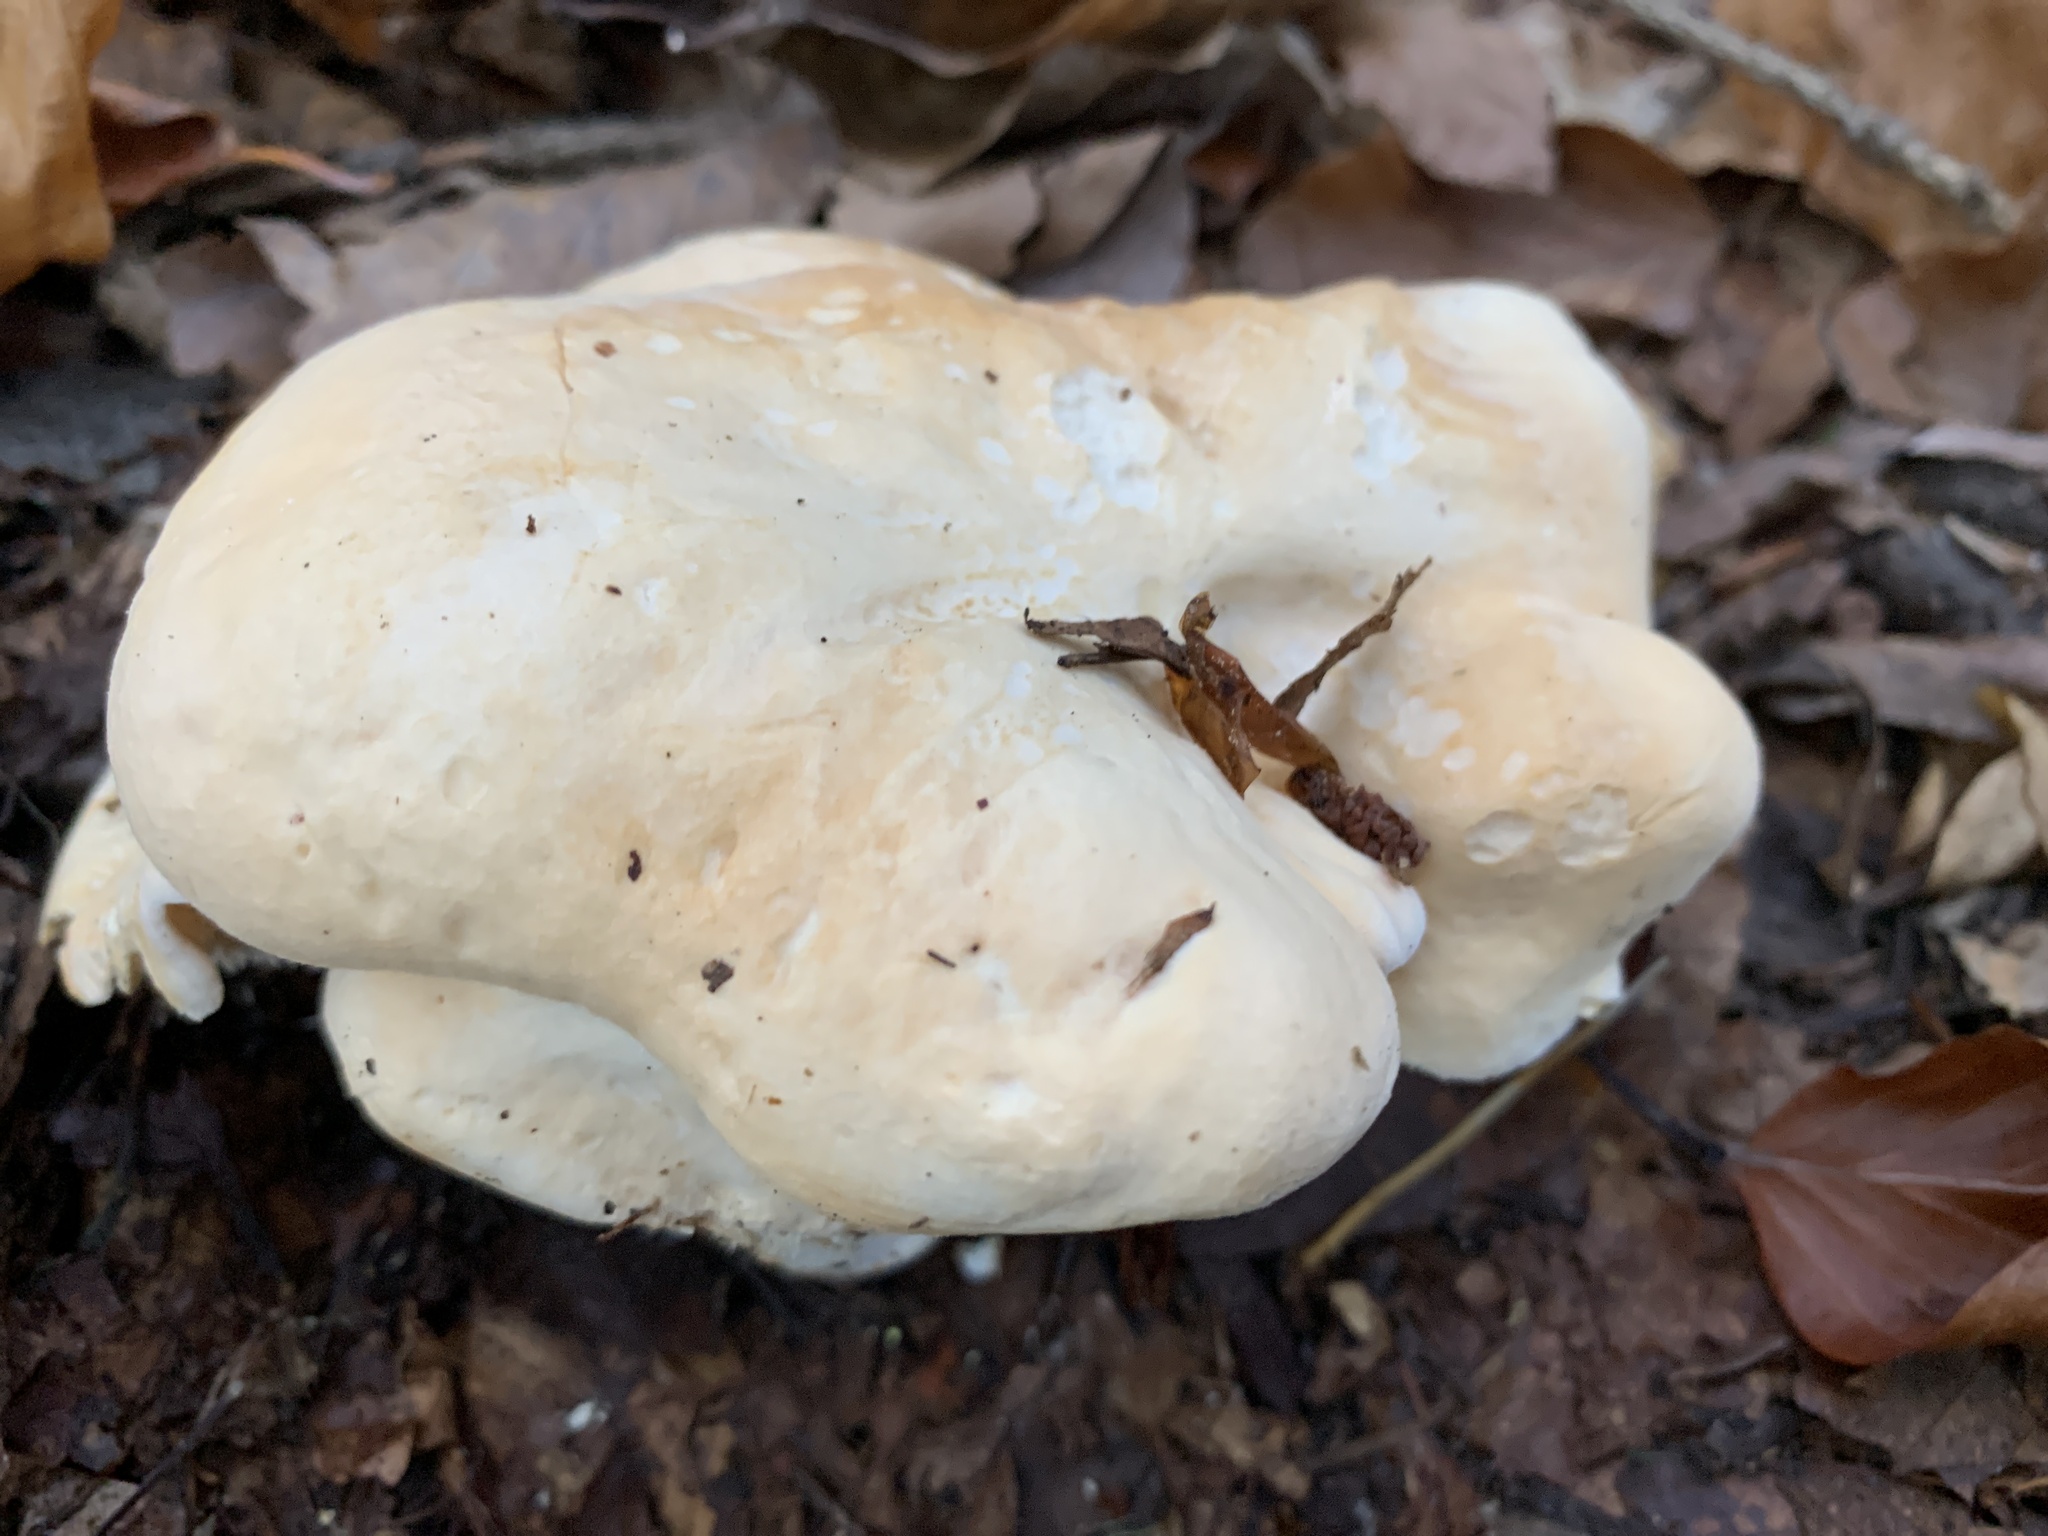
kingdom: Fungi
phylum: Basidiomycota
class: Agaricomycetes
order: Cantharellales
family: Hydnaceae
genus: Hydnum
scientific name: Hydnum repandum
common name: Wood hedgehog
